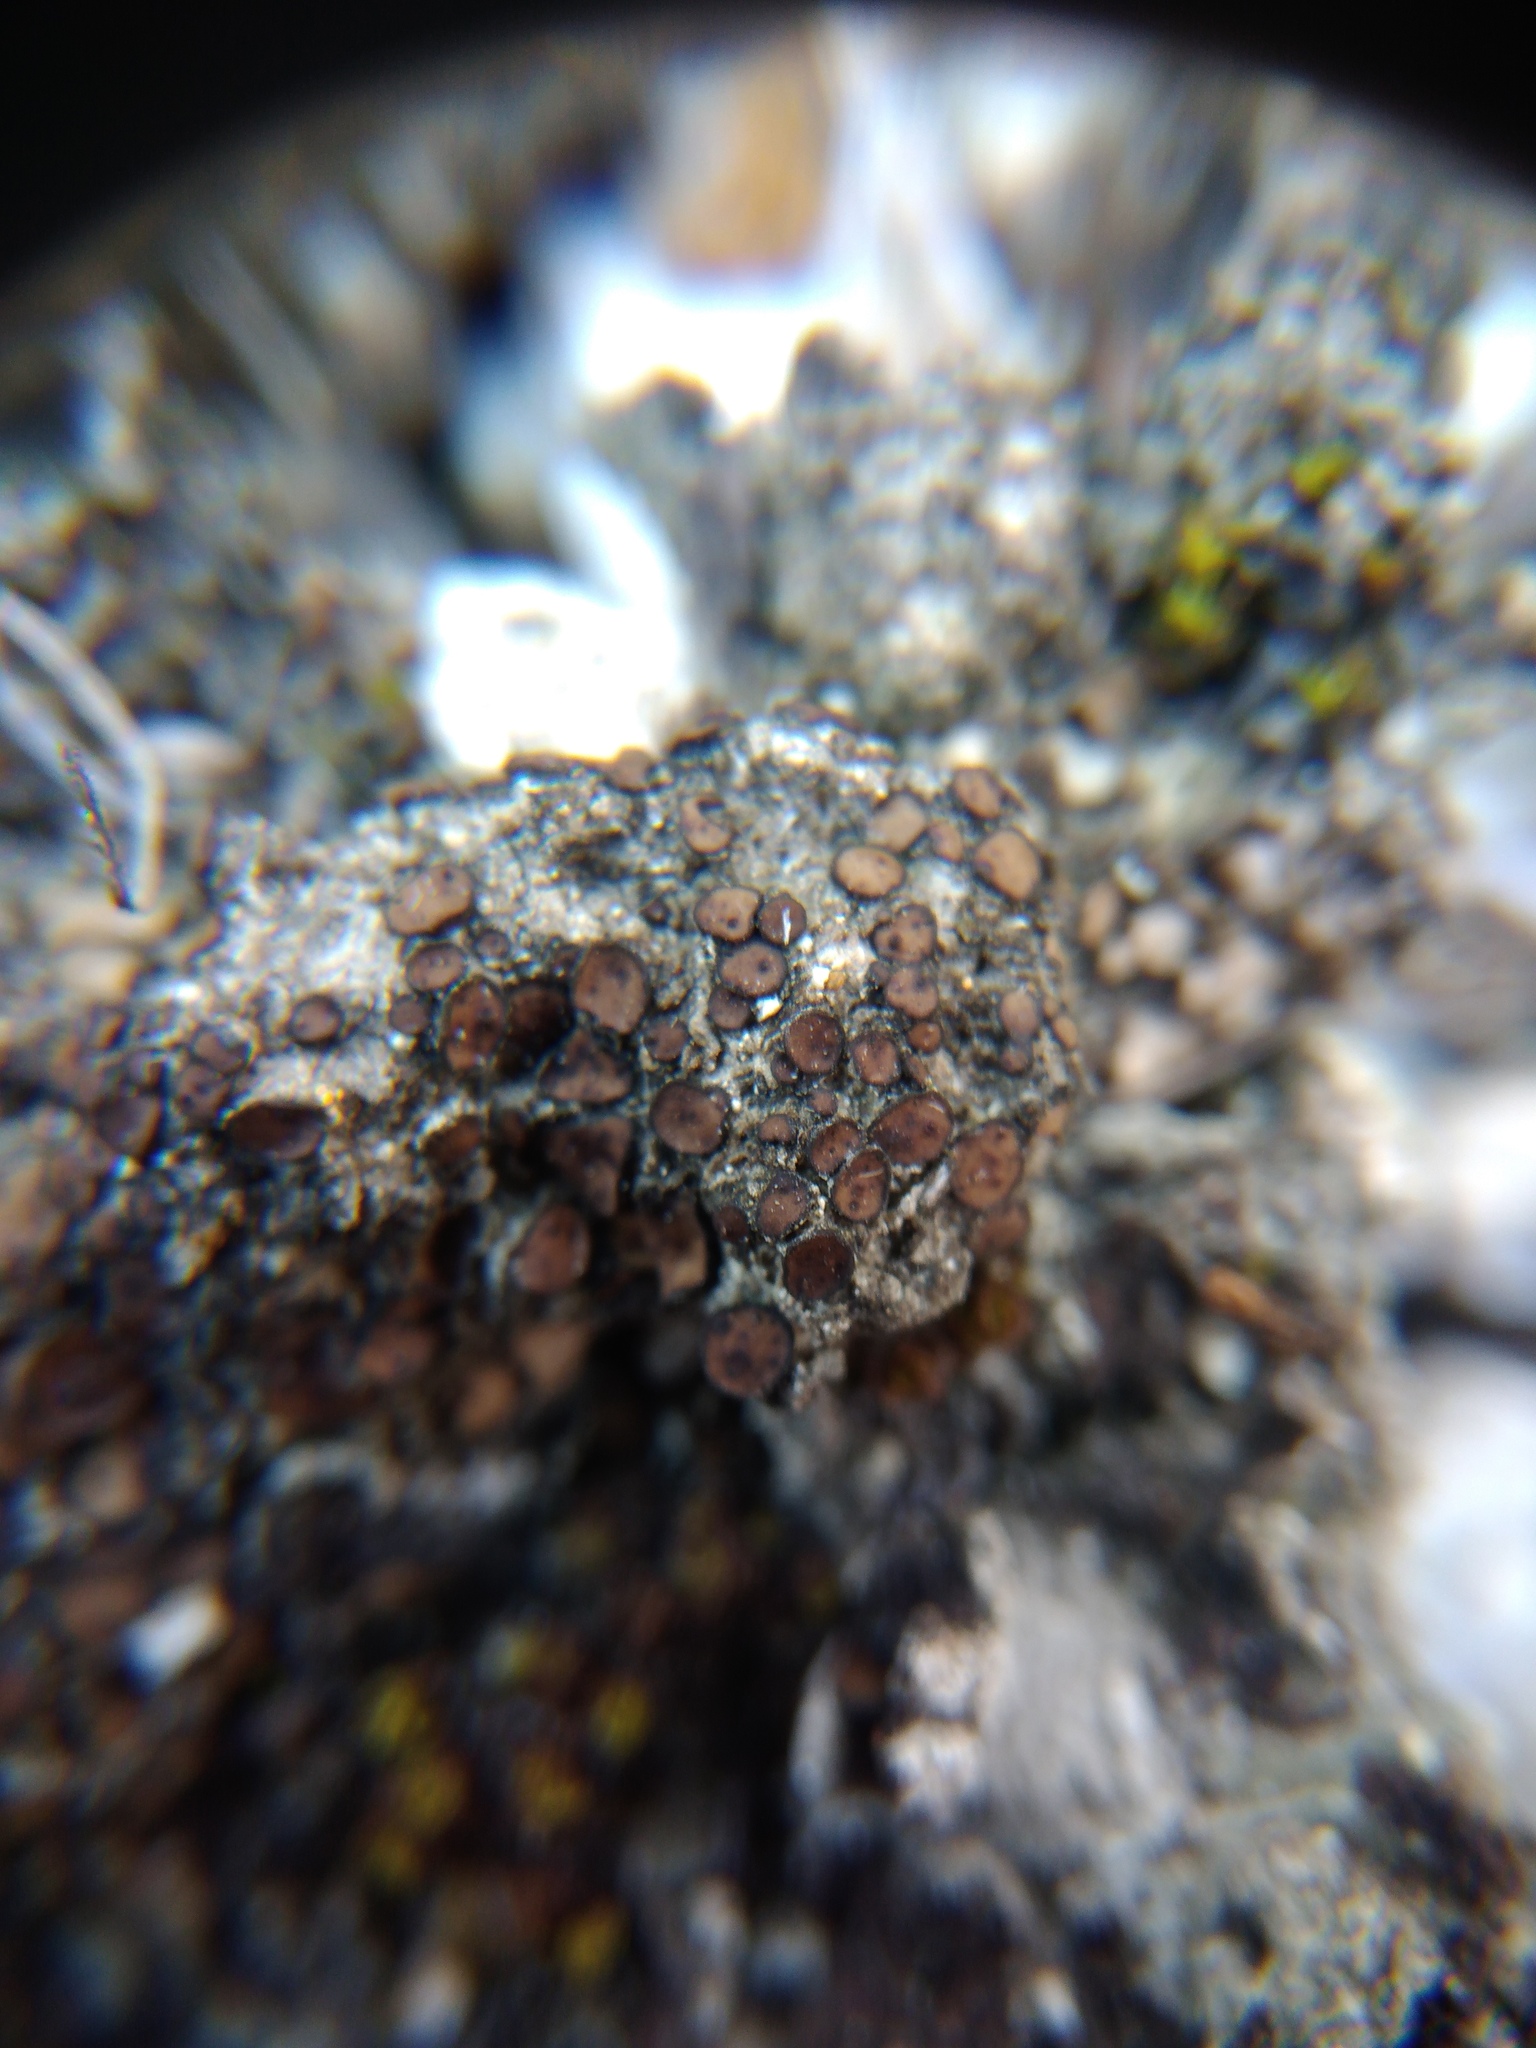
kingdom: Fungi
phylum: Ascomycota
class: Eurotiomycetes
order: Verrucariales
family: Verrucariaceae
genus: Catapyrenium
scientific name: Catapyrenium squamulosum
